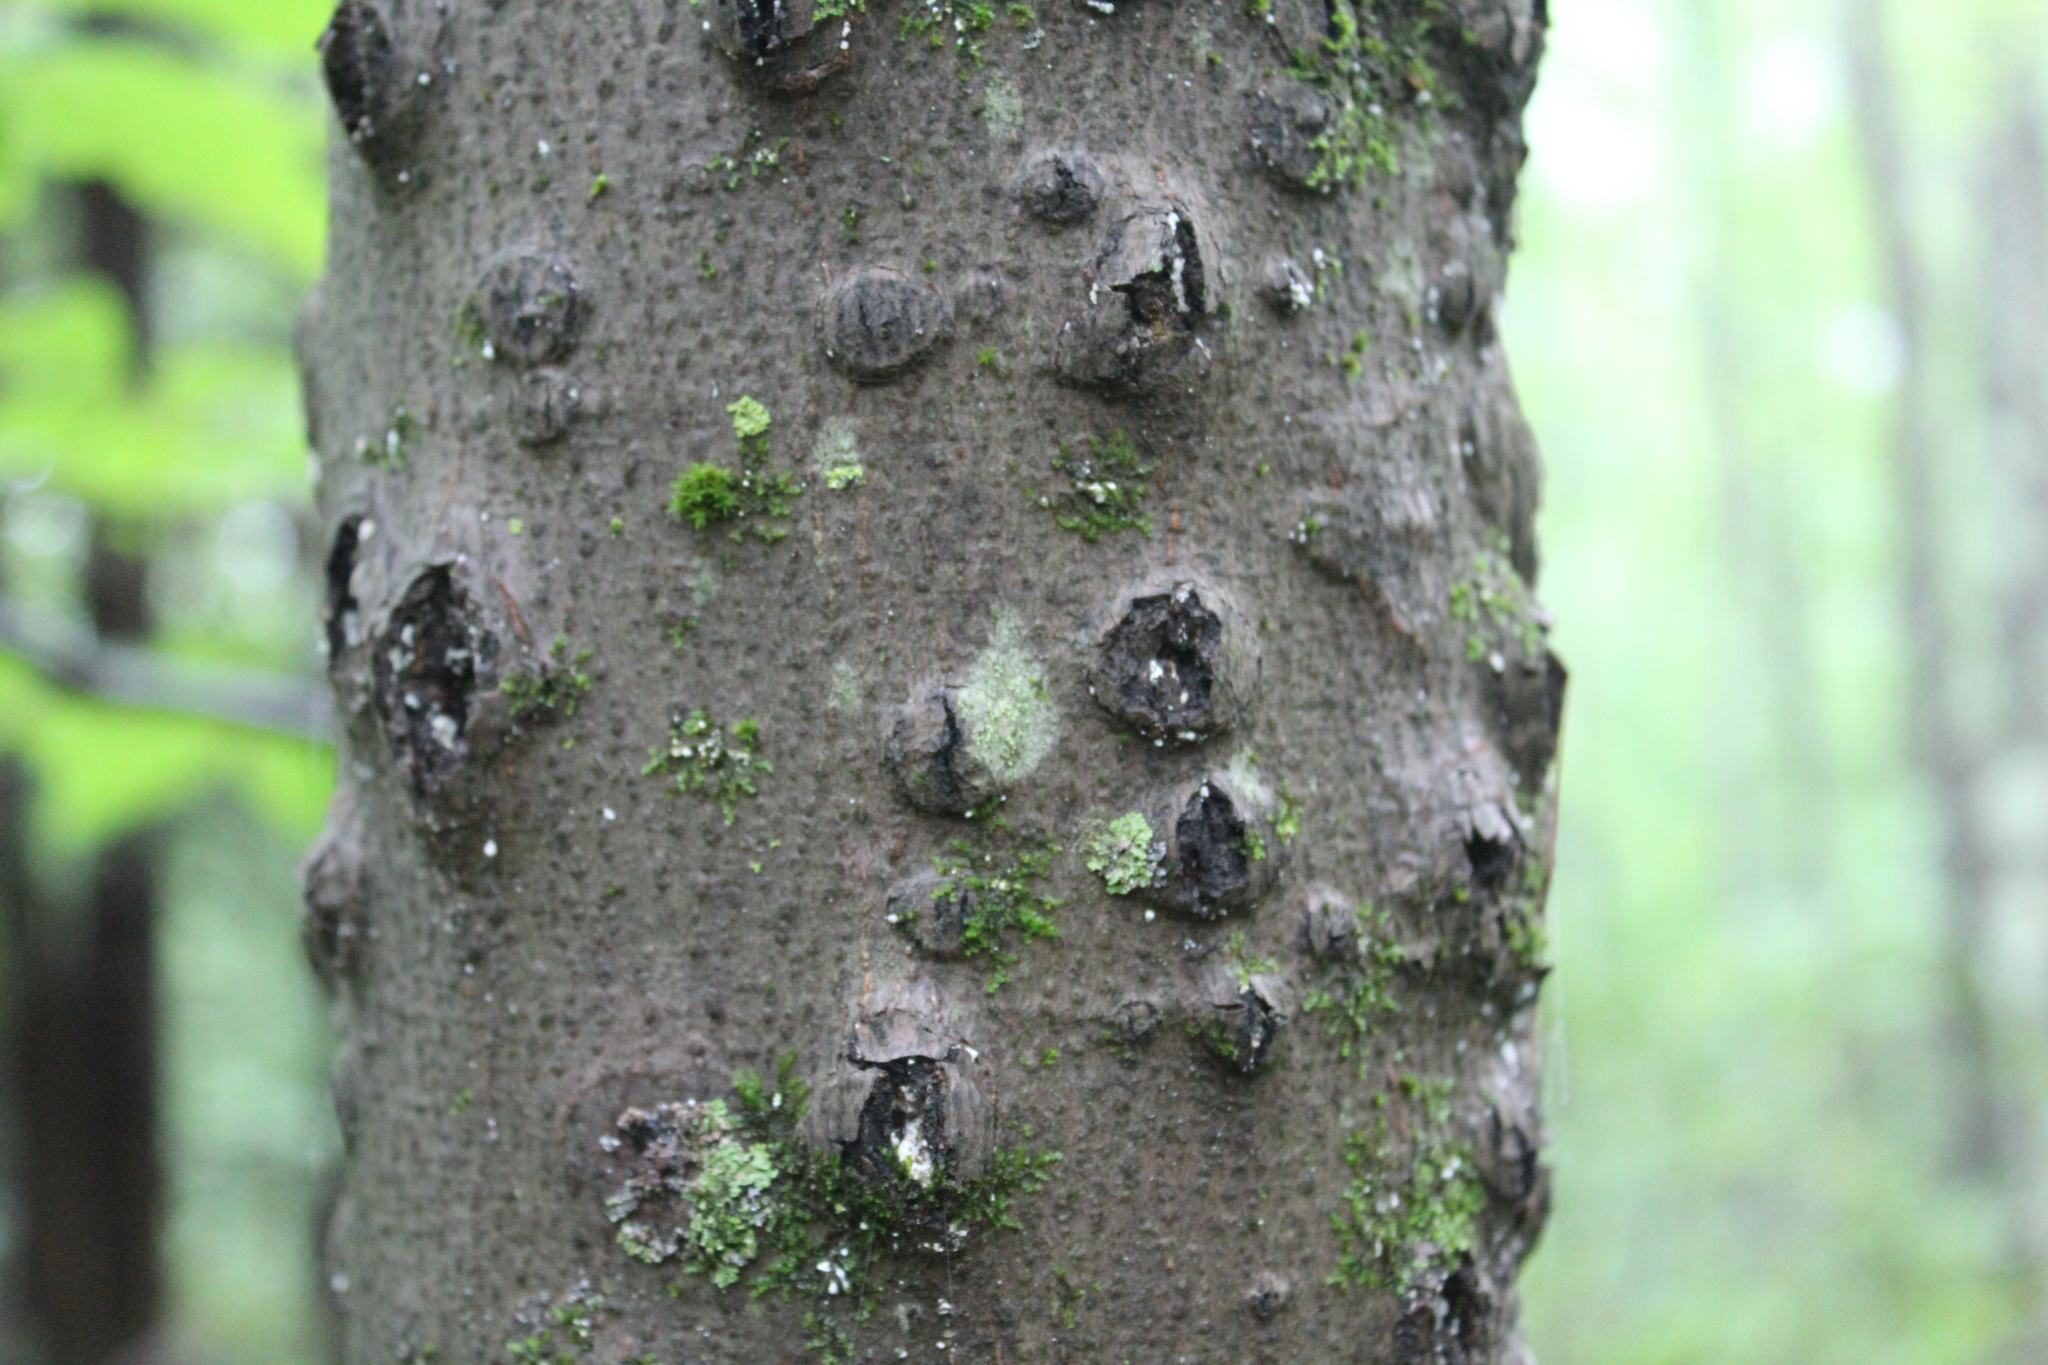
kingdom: Animalia
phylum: Arthropoda
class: Insecta
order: Hemiptera
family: Eriococcidae
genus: Cryptococcus
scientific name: Cryptococcus fagisuga
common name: Beech scale
